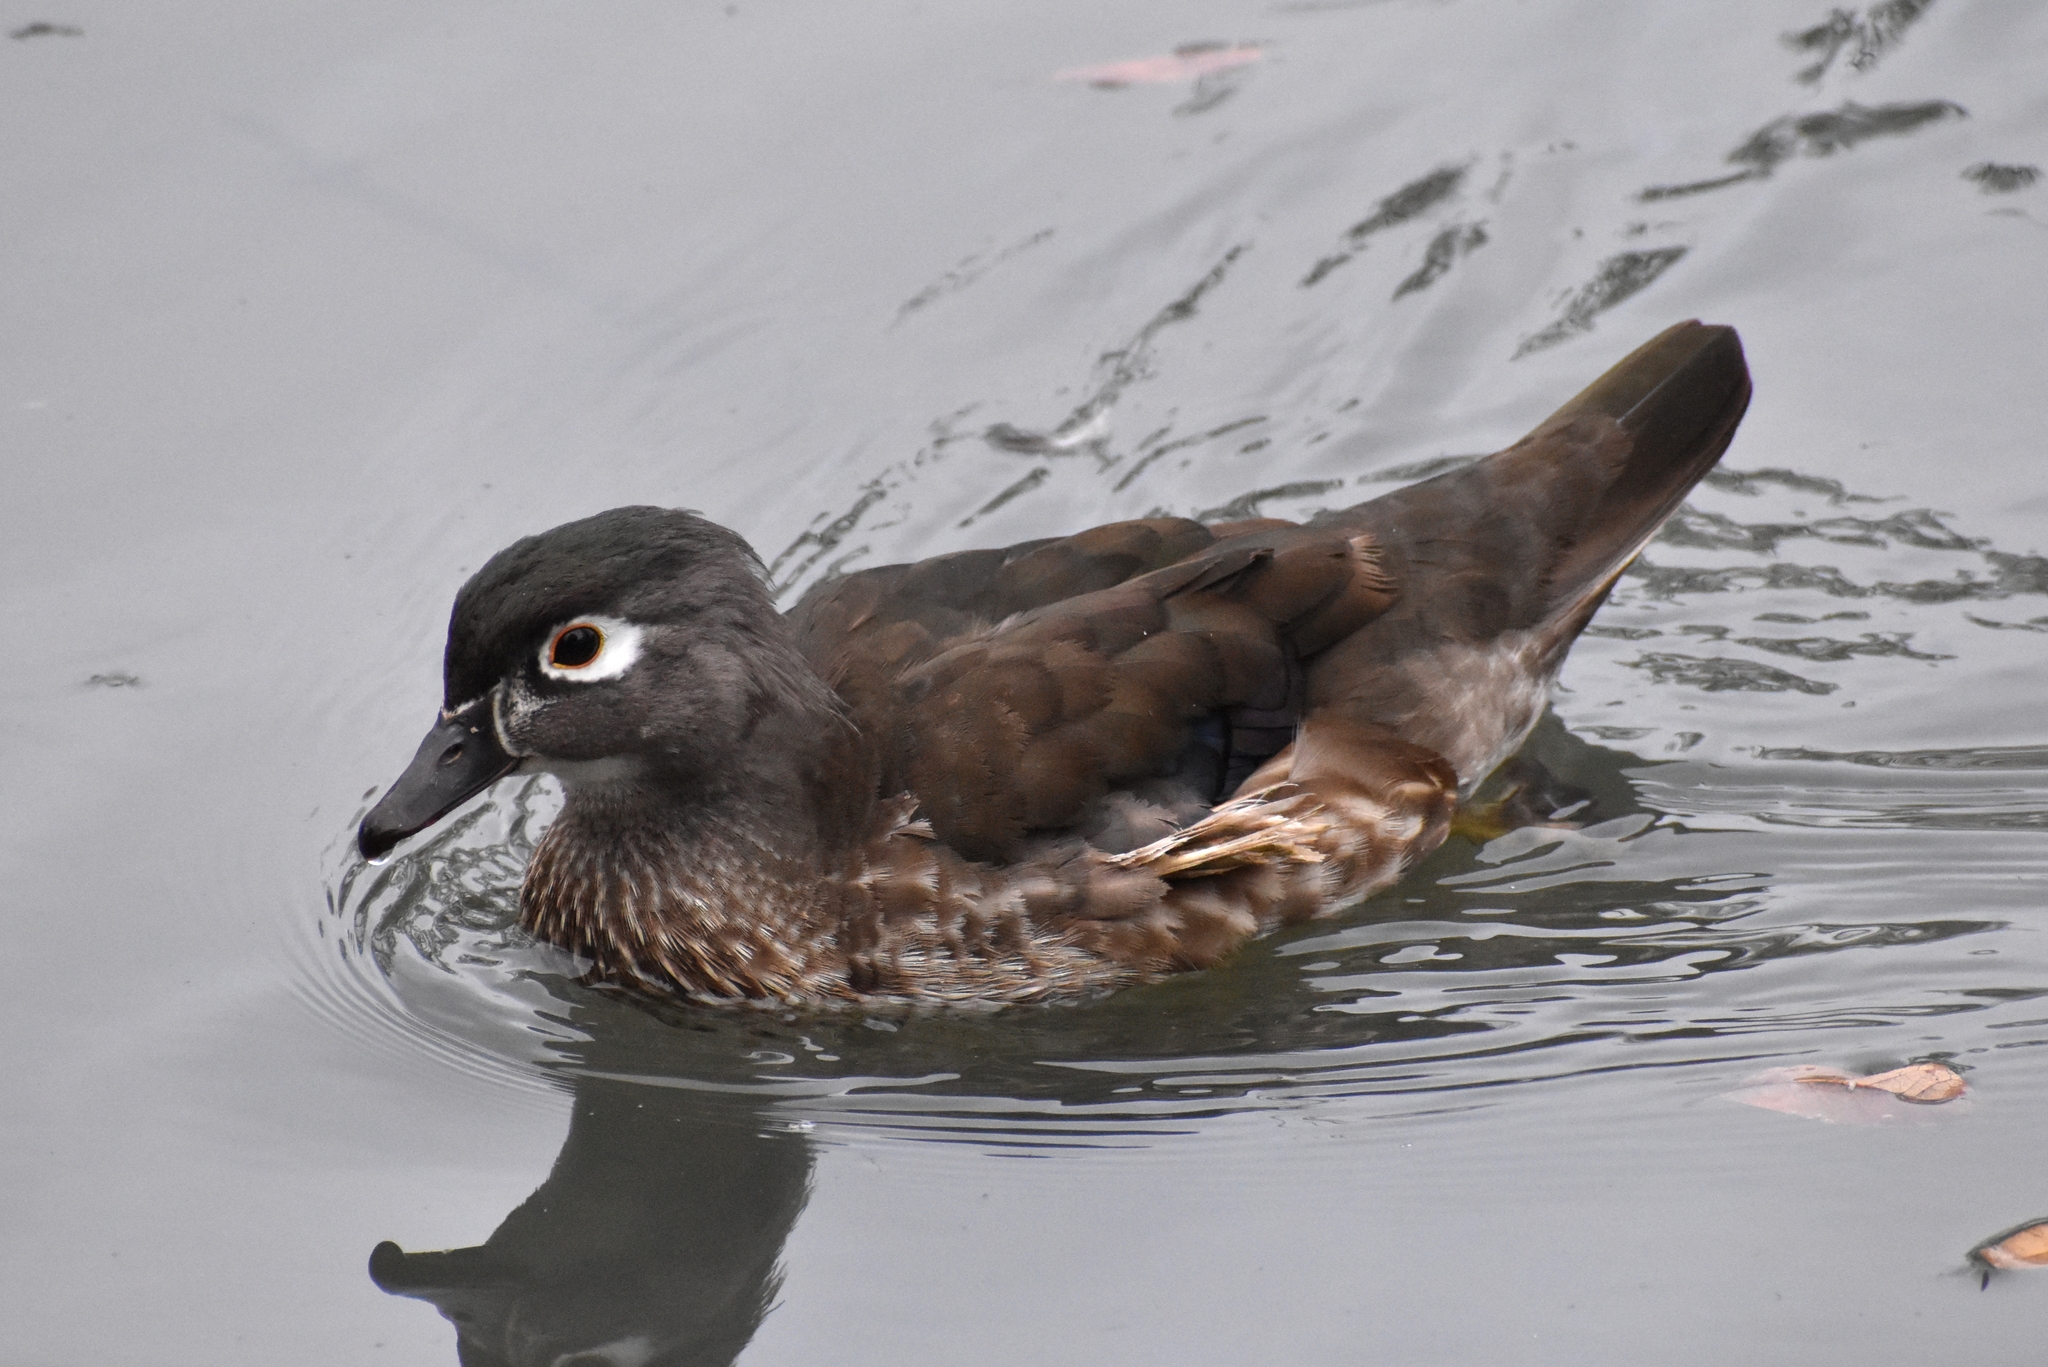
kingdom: Animalia
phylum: Chordata
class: Aves
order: Anseriformes
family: Anatidae
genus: Aix
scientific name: Aix sponsa
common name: Wood duck
